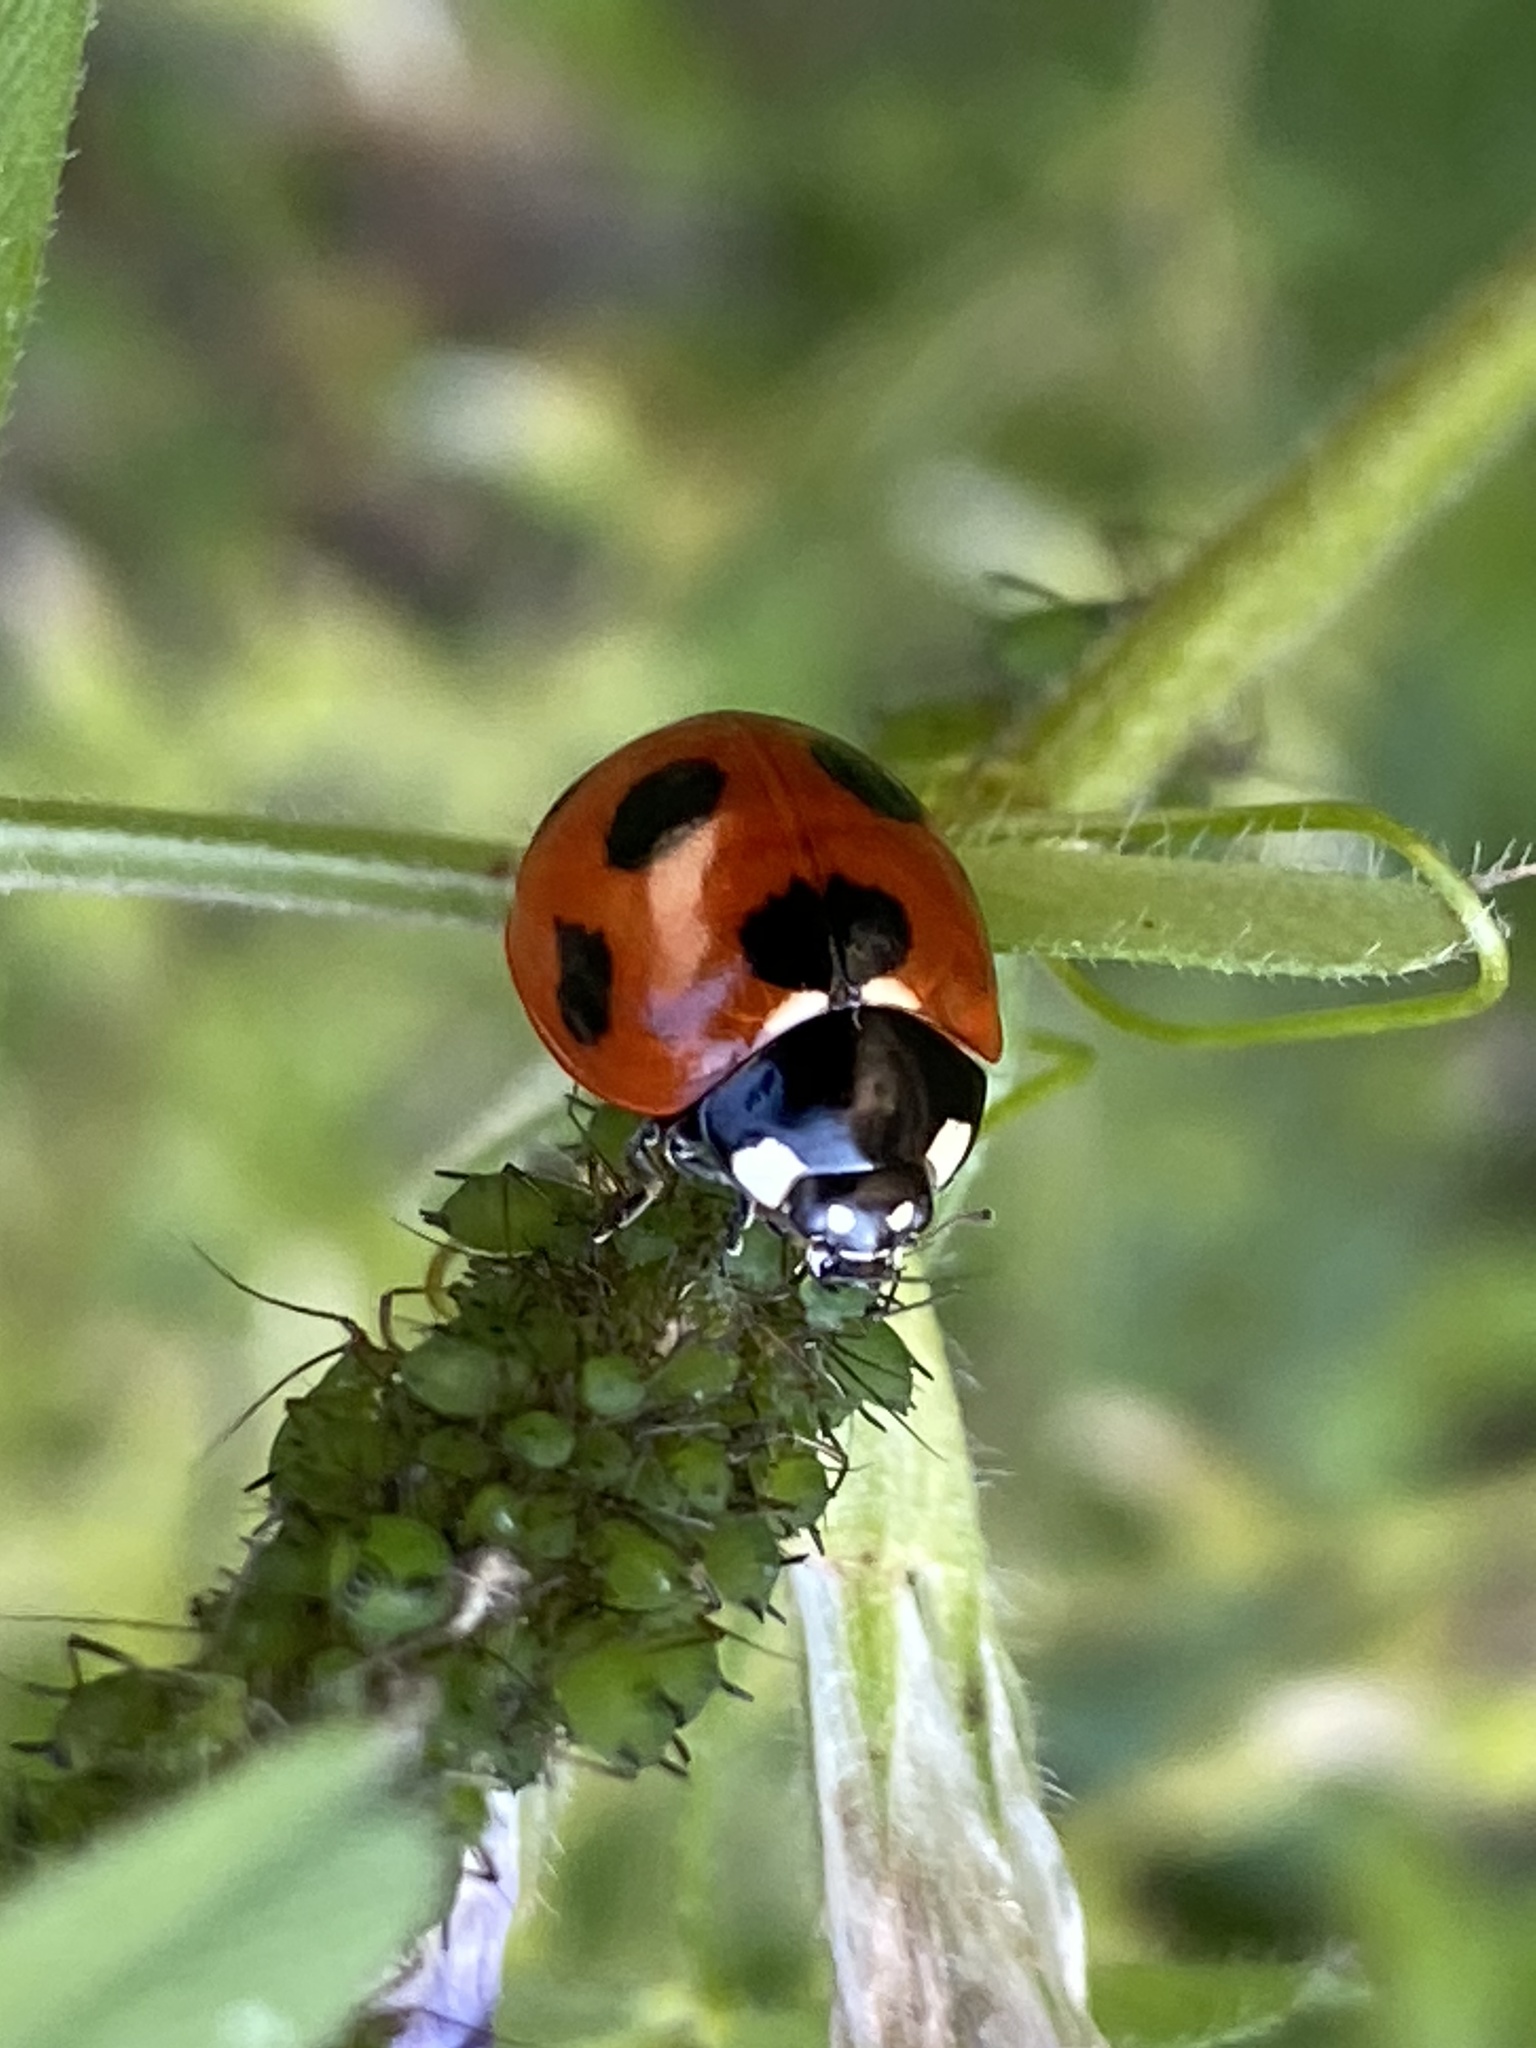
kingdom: Animalia
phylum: Arthropoda
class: Insecta
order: Coleoptera
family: Coccinellidae
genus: Coccinella
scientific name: Coccinella septempunctata
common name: Sevenspotted lady beetle
